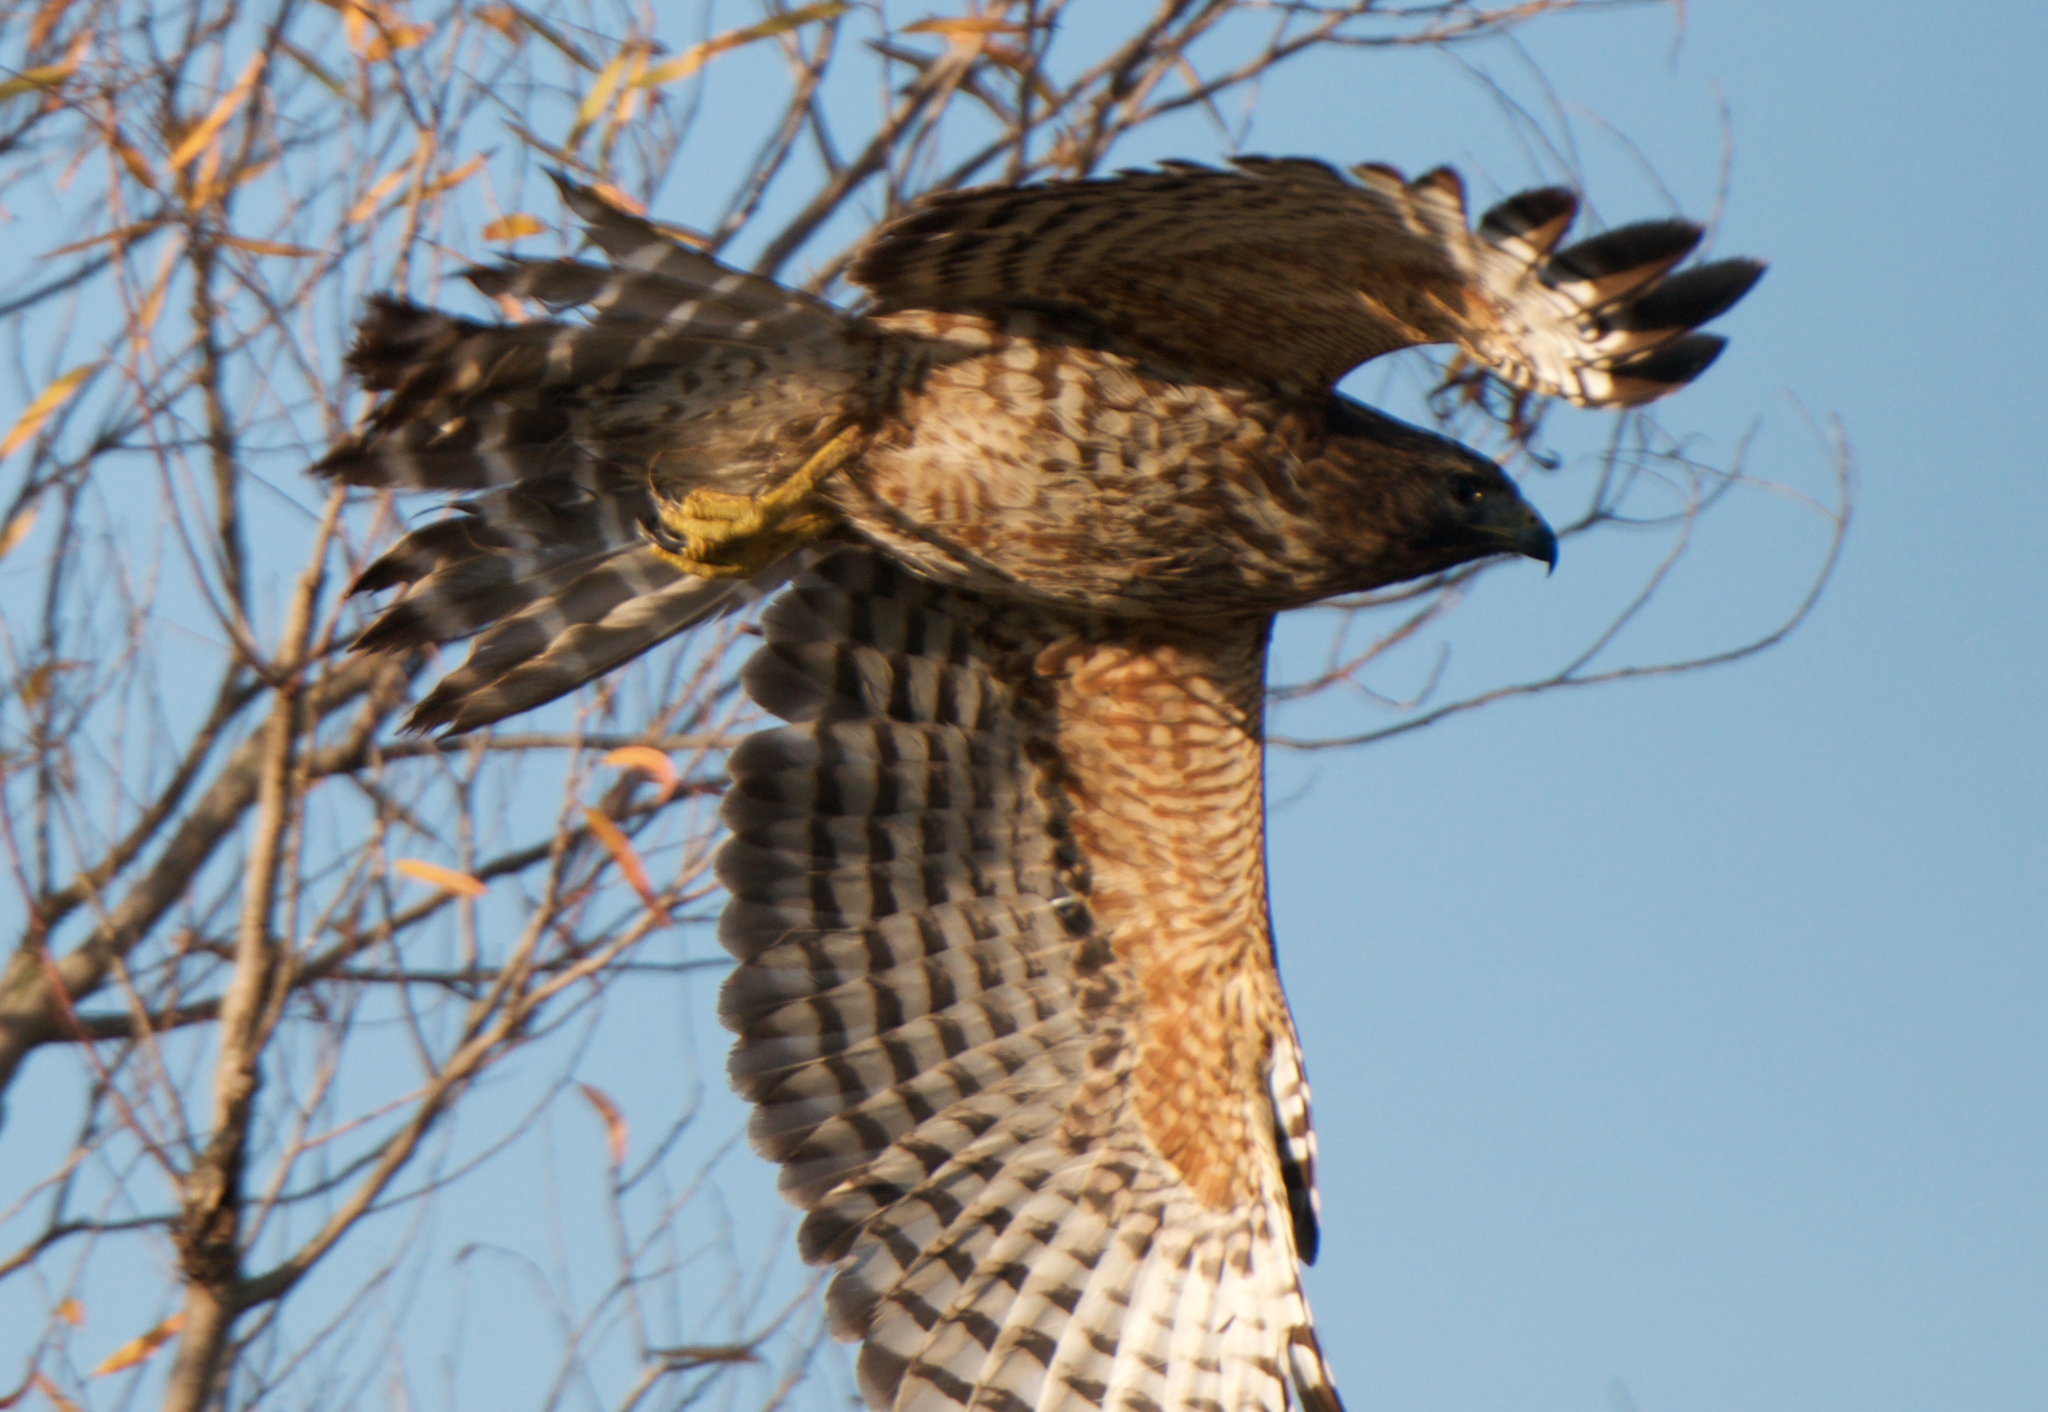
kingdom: Animalia
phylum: Chordata
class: Aves
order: Accipitriformes
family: Accipitridae
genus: Buteo
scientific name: Buteo lineatus
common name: Red-shouldered hawk
